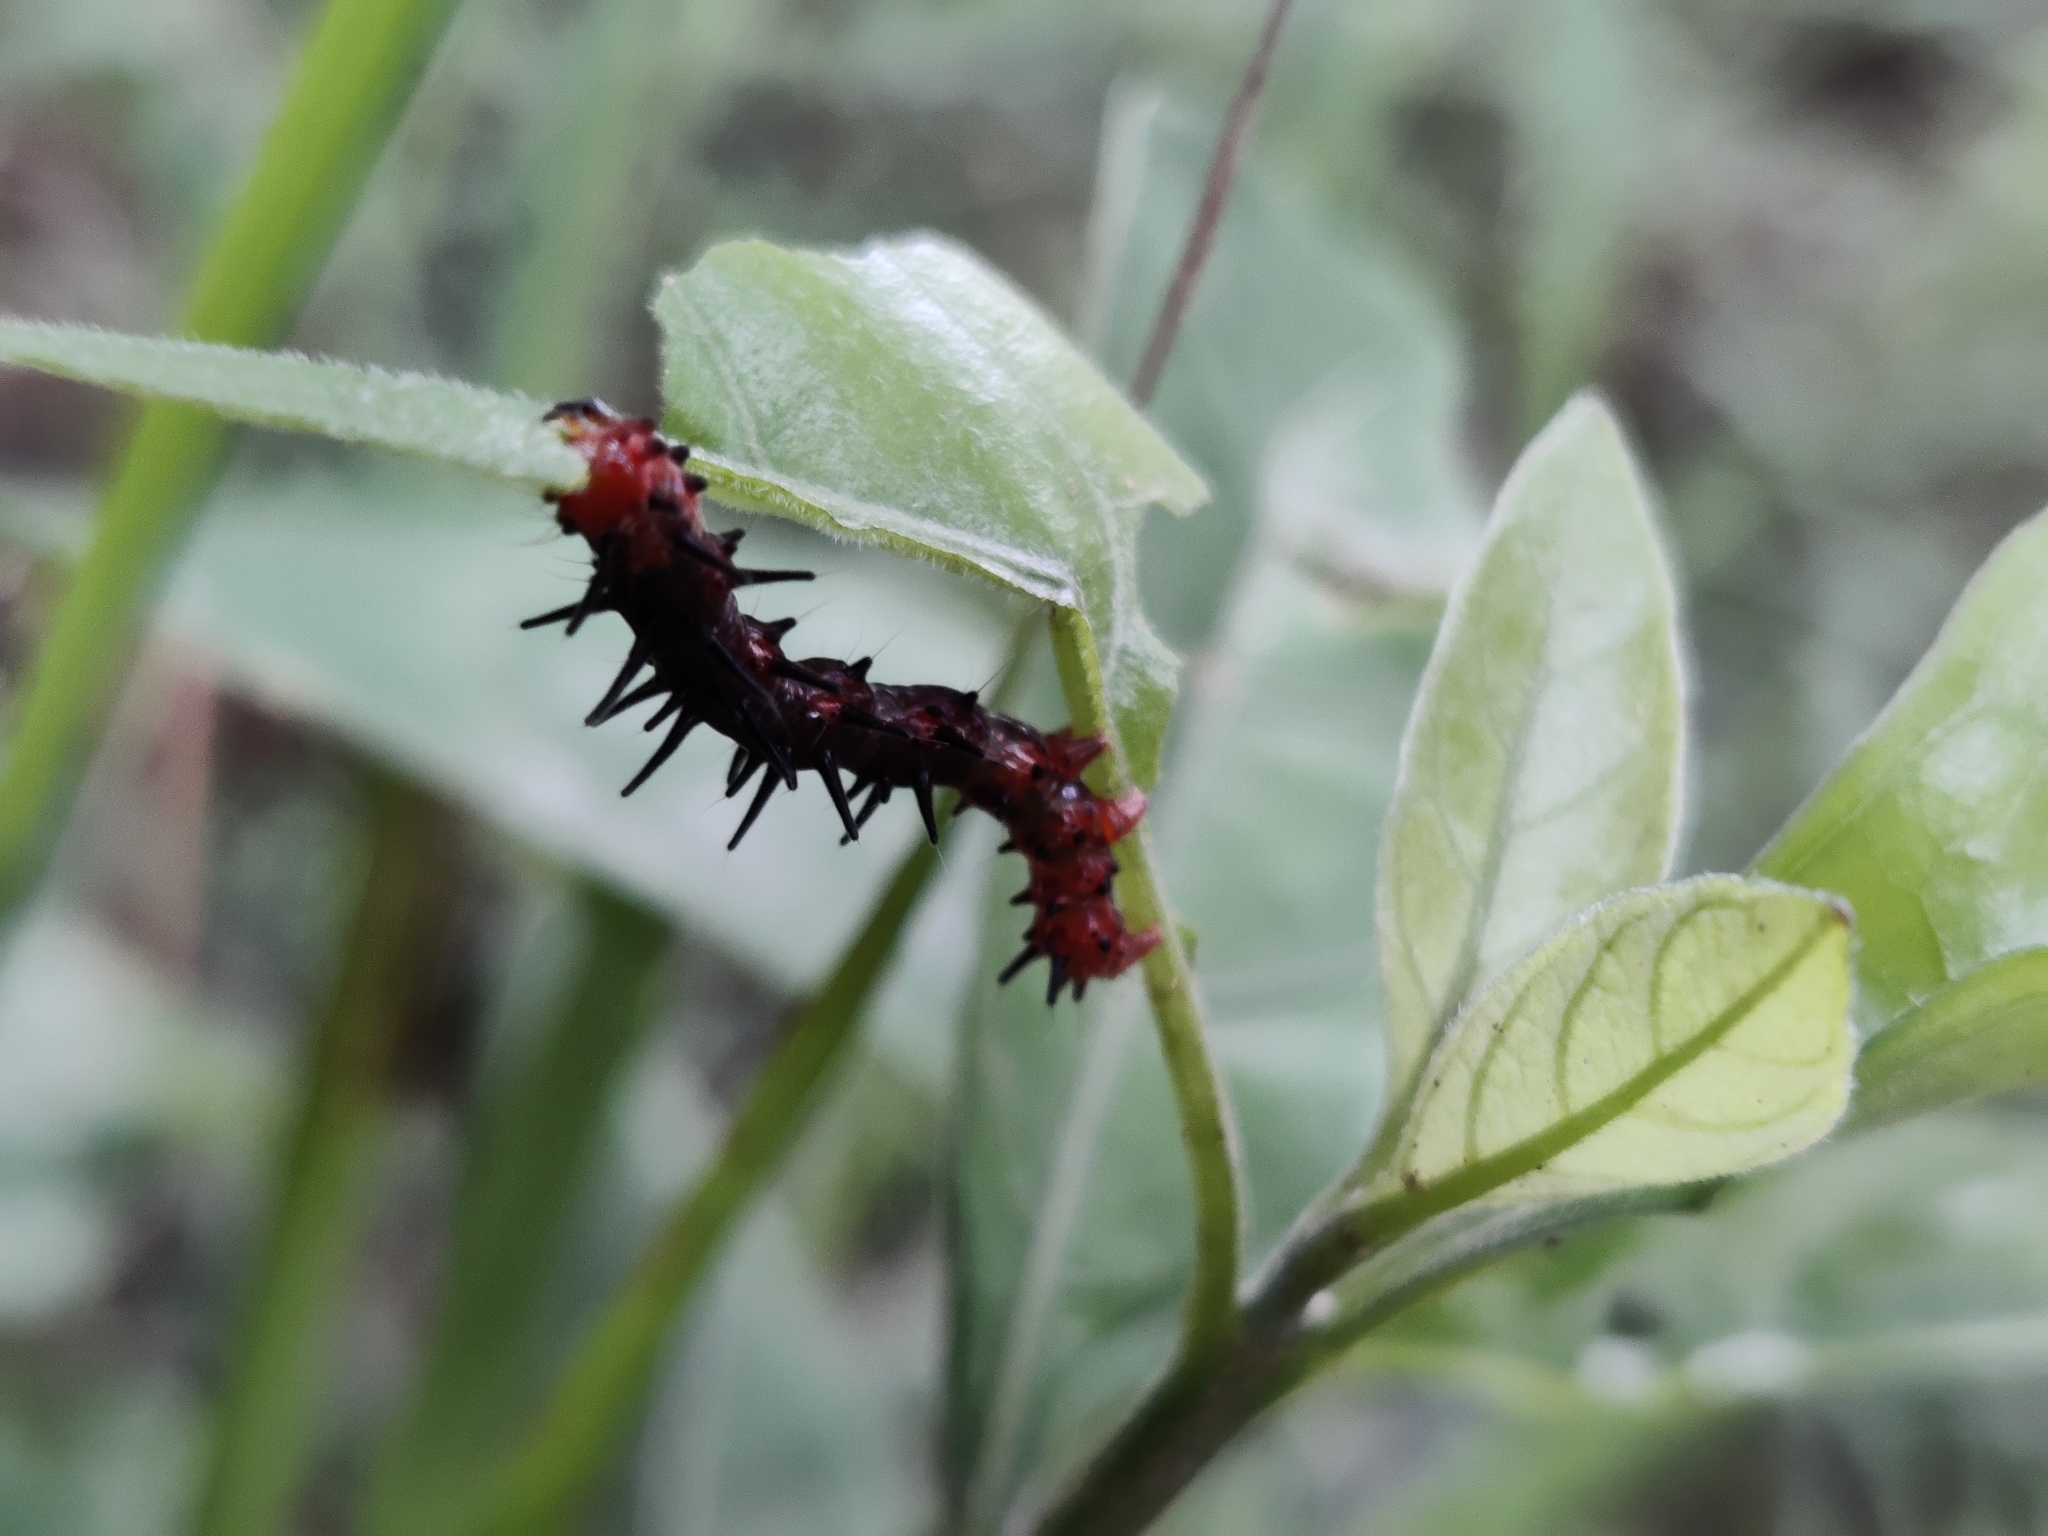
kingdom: Animalia
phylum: Arthropoda
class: Insecta
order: Lepidoptera
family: Nymphalidae
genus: Acraea
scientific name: Acraea terpsicore
